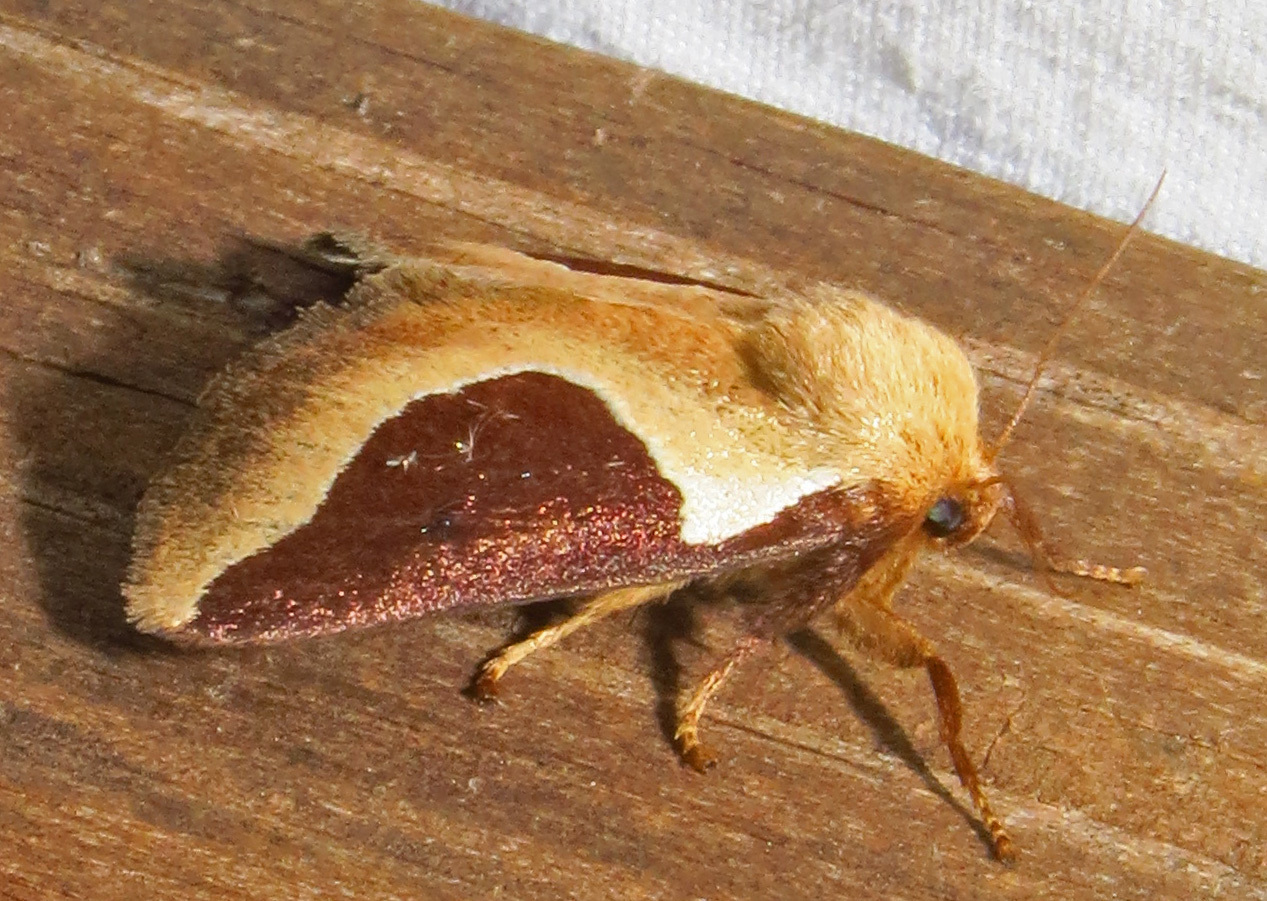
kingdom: Animalia
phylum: Arthropoda
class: Insecta
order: Lepidoptera
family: Limacodidae
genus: Prolimacodes
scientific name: Prolimacodes badia
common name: Skiff moth
